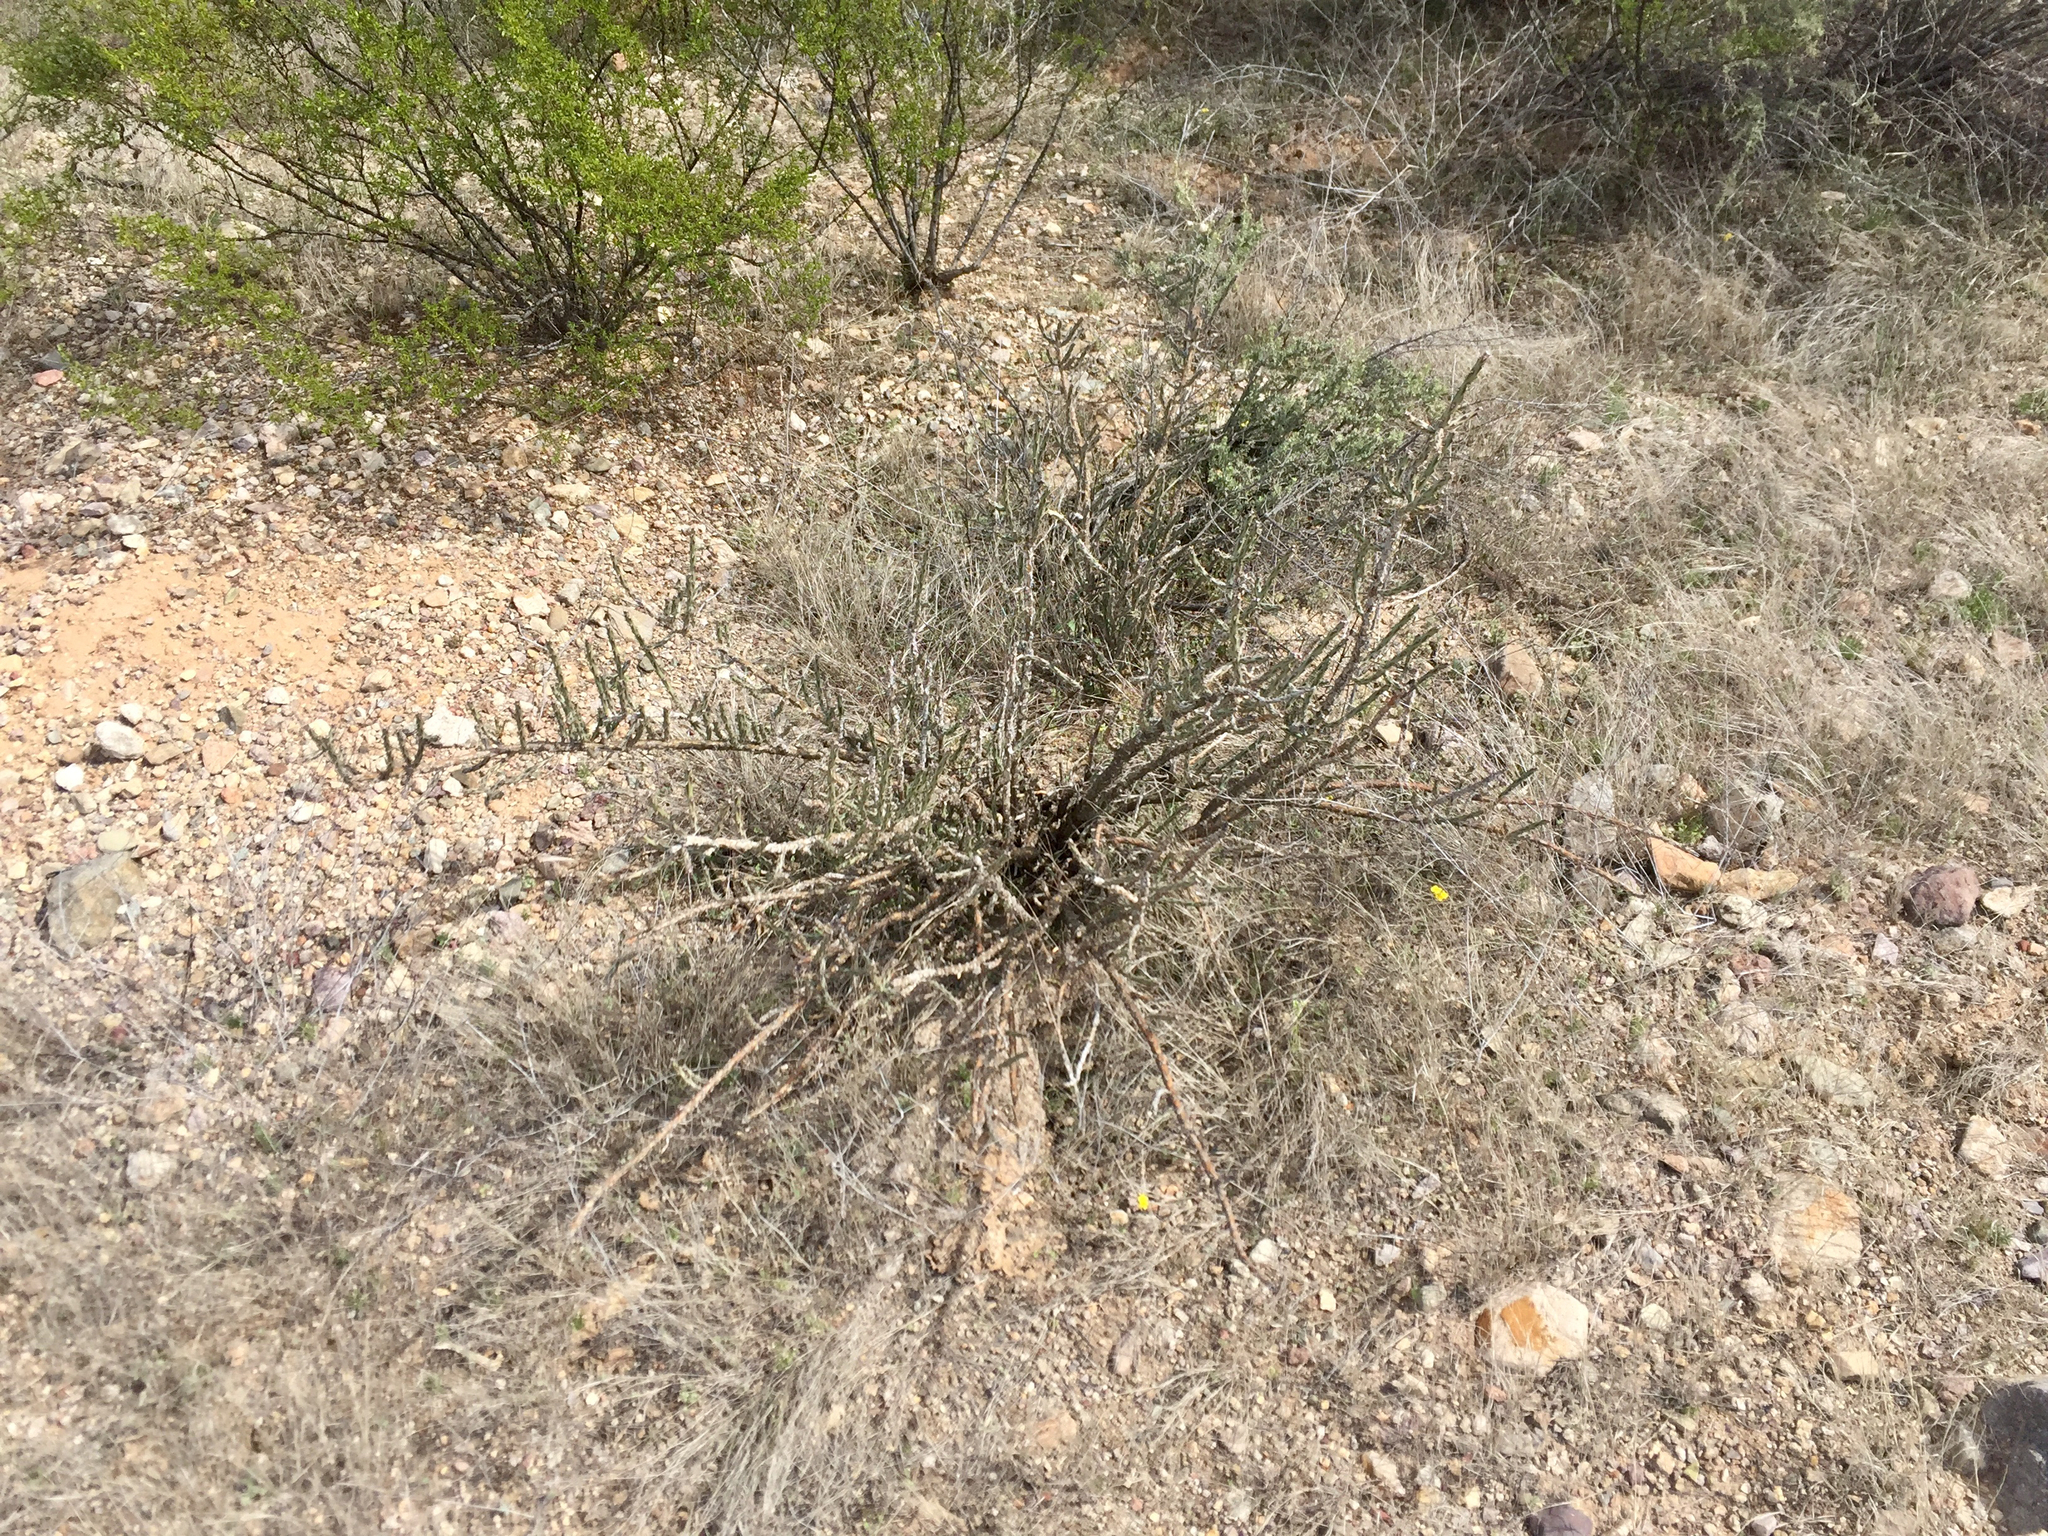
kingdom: Plantae
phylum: Tracheophyta
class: Magnoliopsida
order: Caryophyllales
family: Cactaceae
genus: Cylindropuntia
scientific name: Cylindropuntia leptocaulis
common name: Christmas cactus
